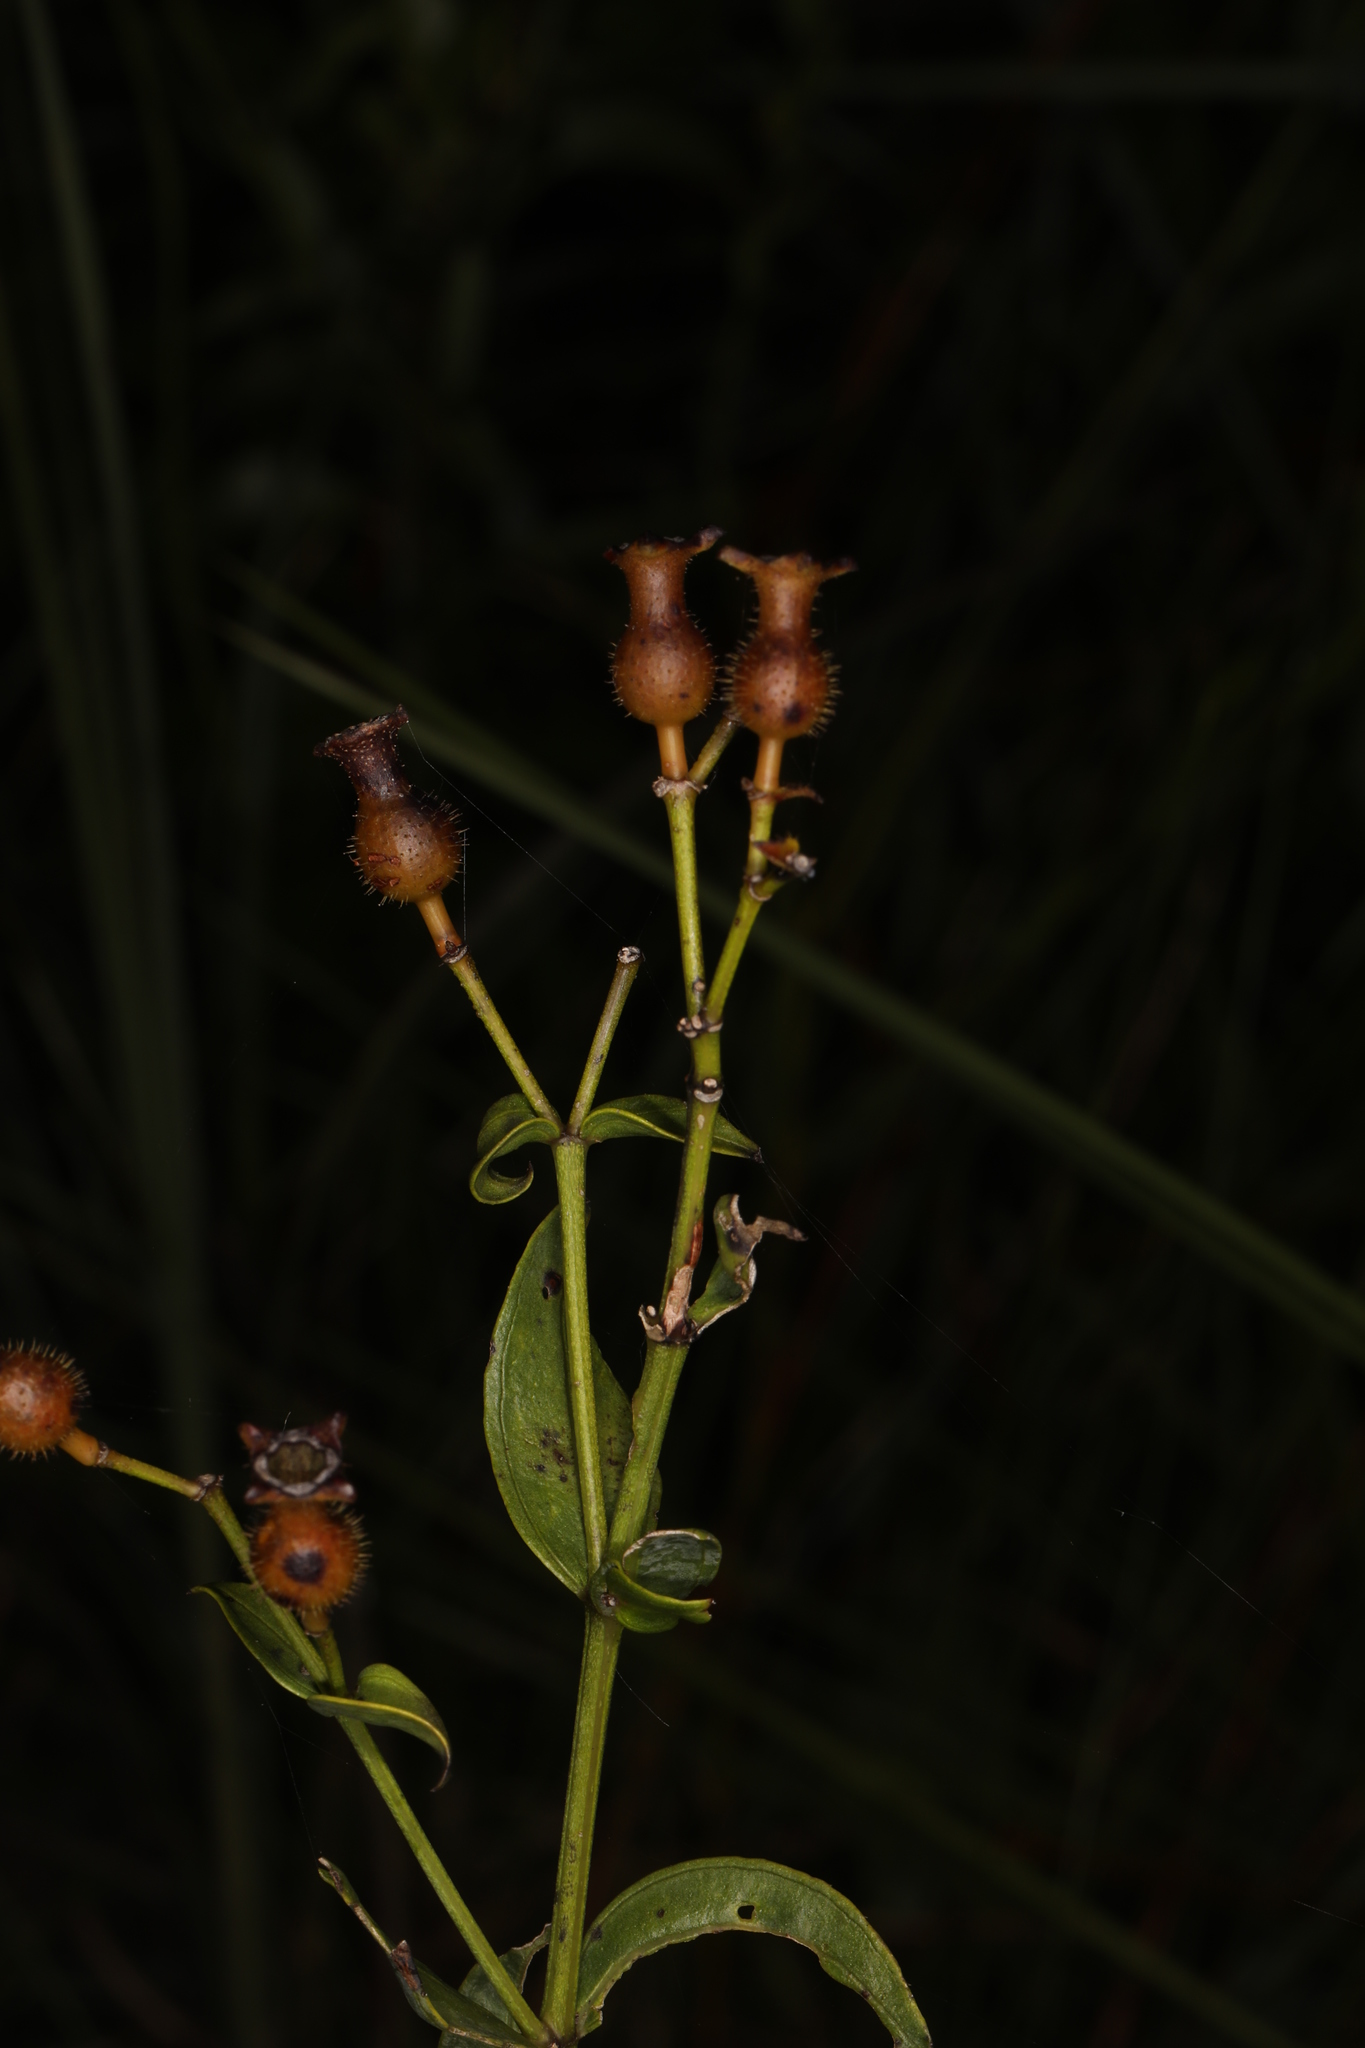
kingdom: Plantae
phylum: Tracheophyta
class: Magnoliopsida
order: Myrtales
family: Melastomataceae
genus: Rhexia
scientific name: Rhexia alifanus
